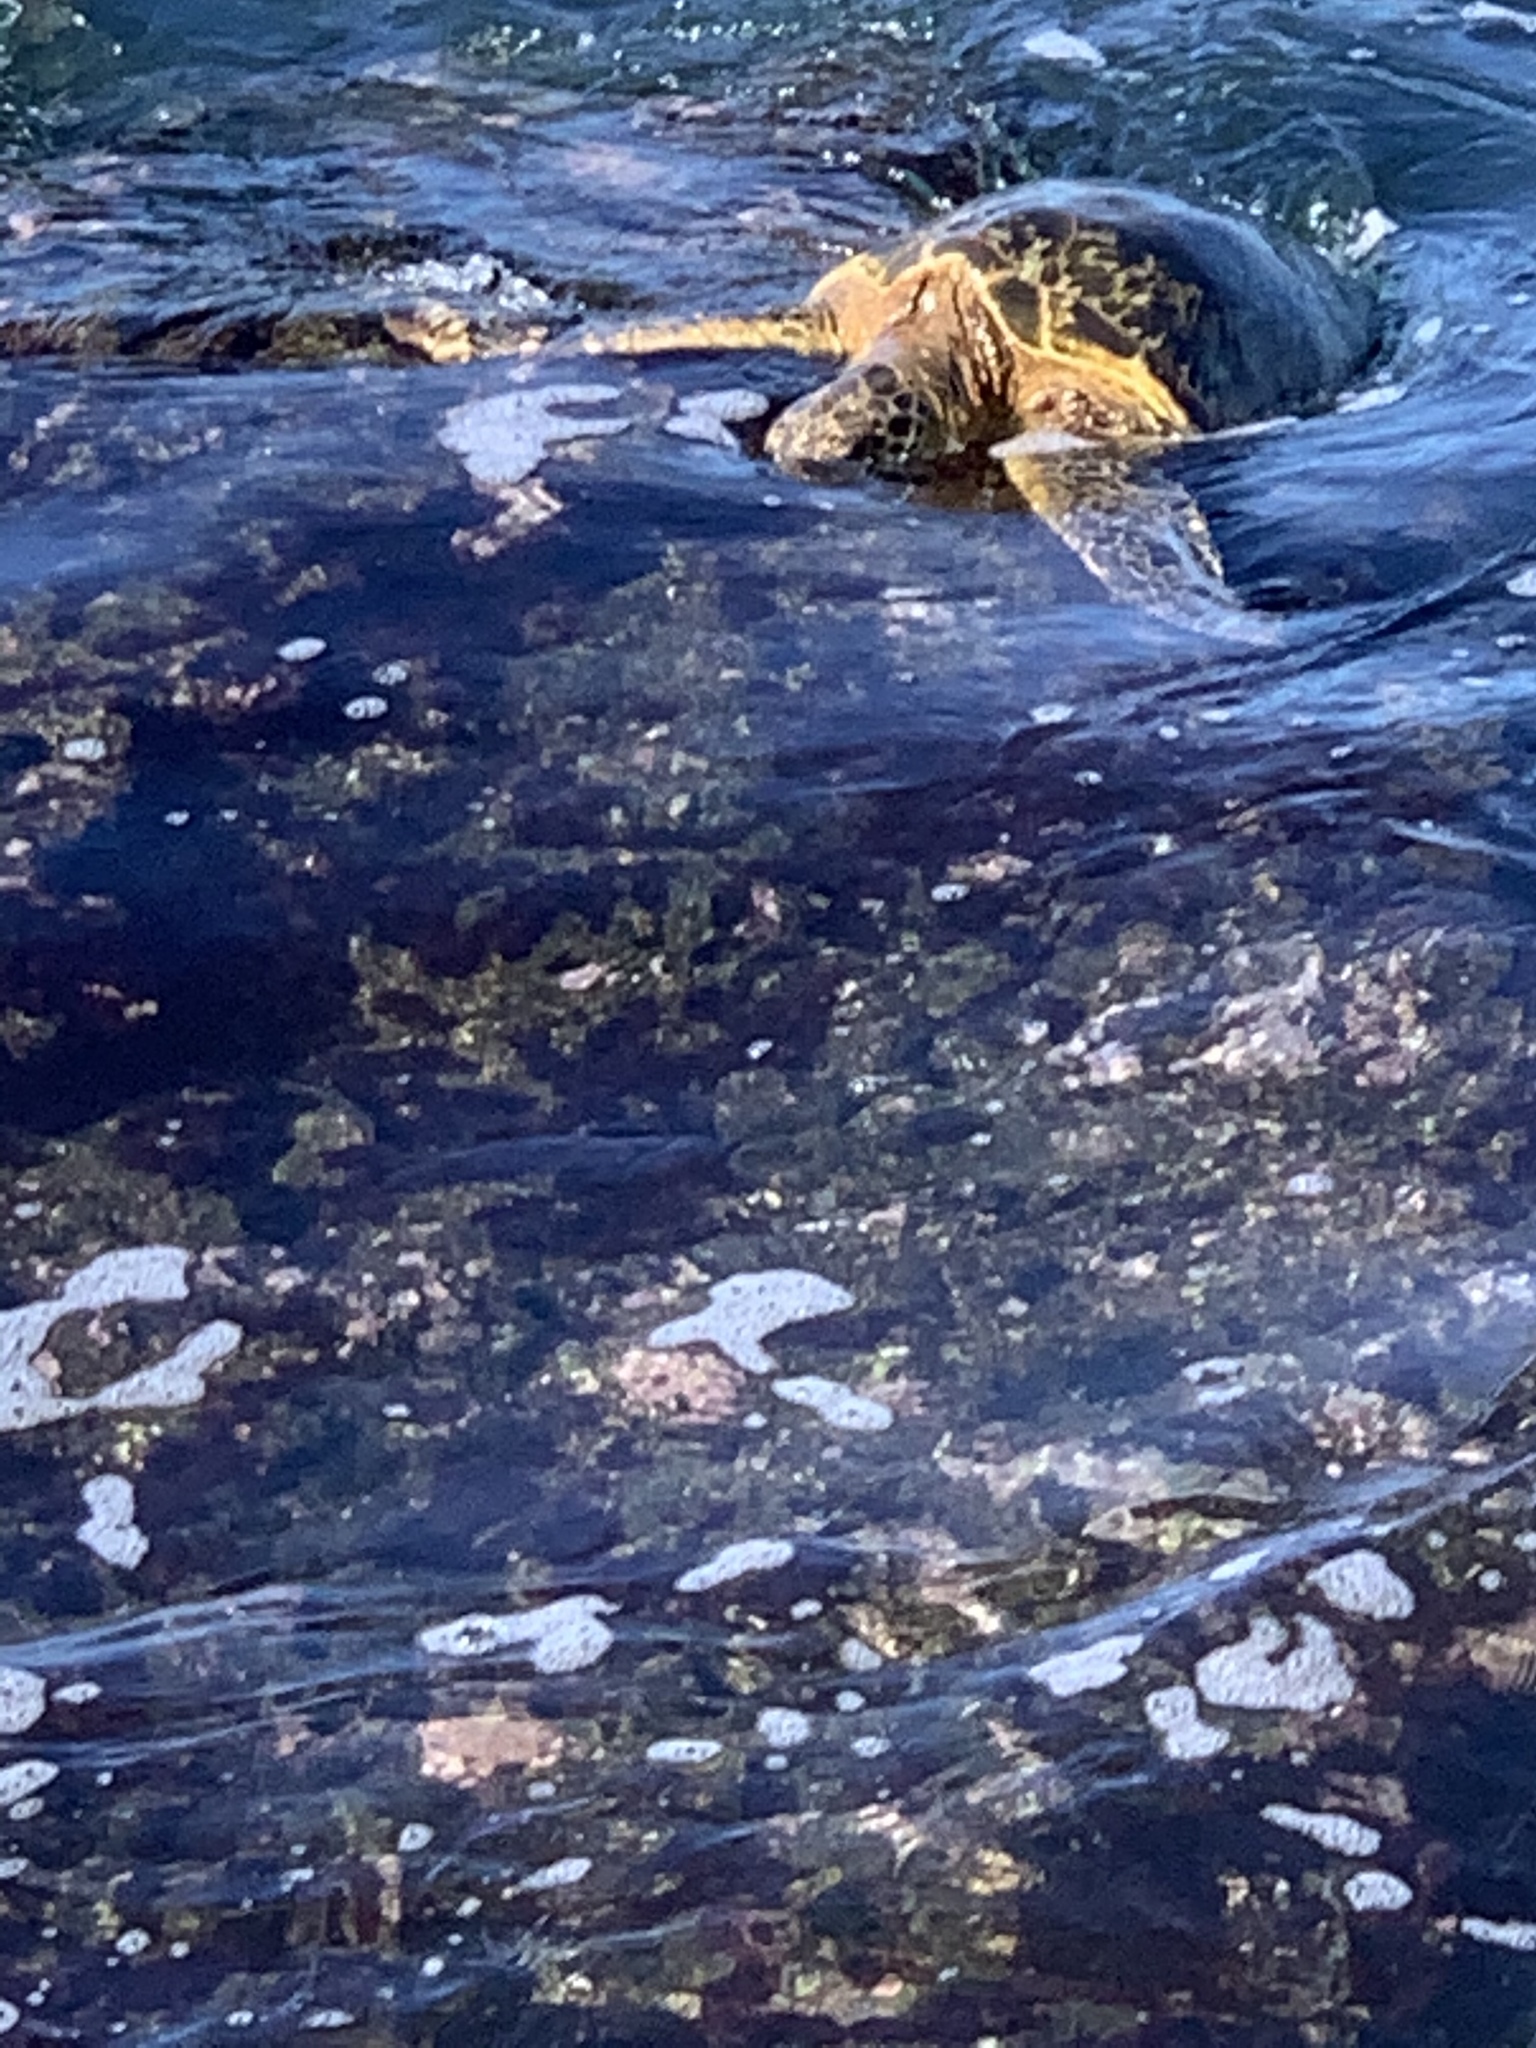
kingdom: Animalia
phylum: Chordata
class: Testudines
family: Cheloniidae
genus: Chelonia
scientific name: Chelonia mydas
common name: Green turtle
